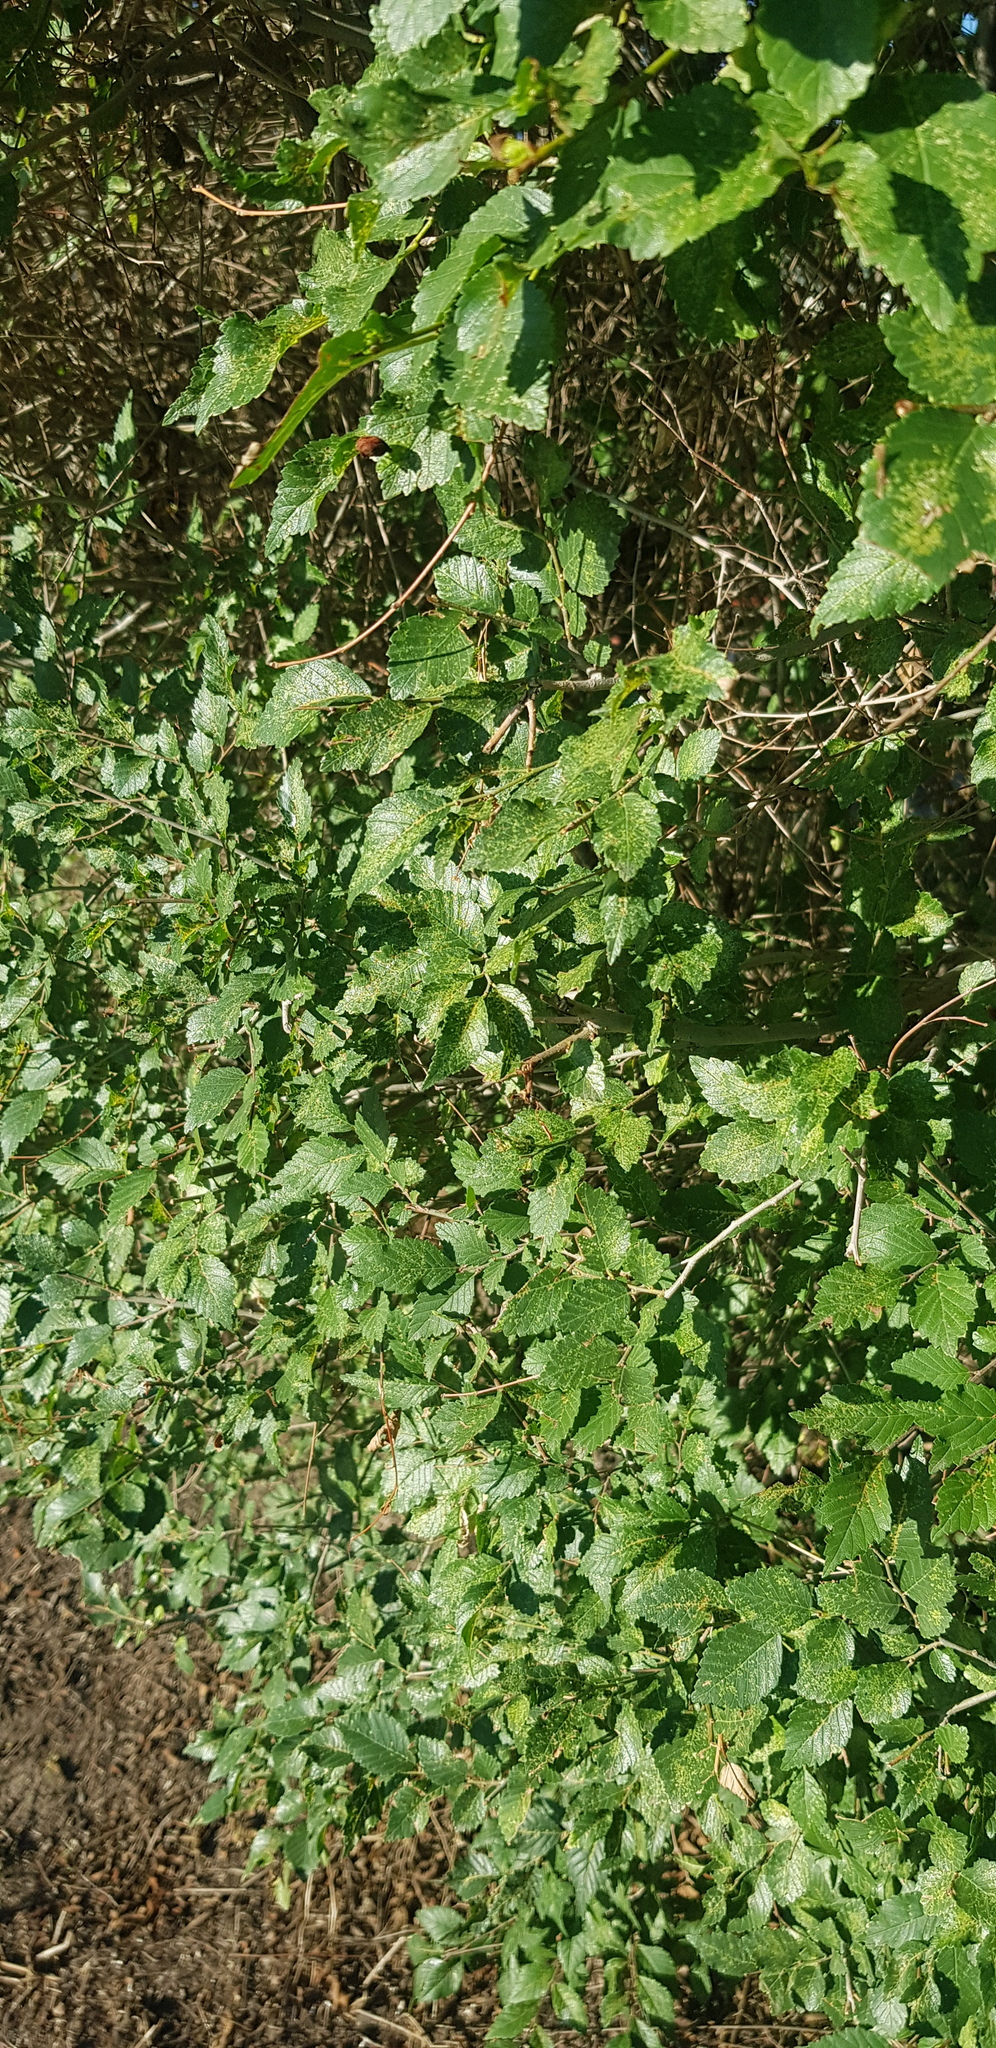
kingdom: Plantae
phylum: Tracheophyta
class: Magnoliopsida
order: Rosales
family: Ulmaceae
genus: Ulmus
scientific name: Ulmus pumila
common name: Siberian elm
